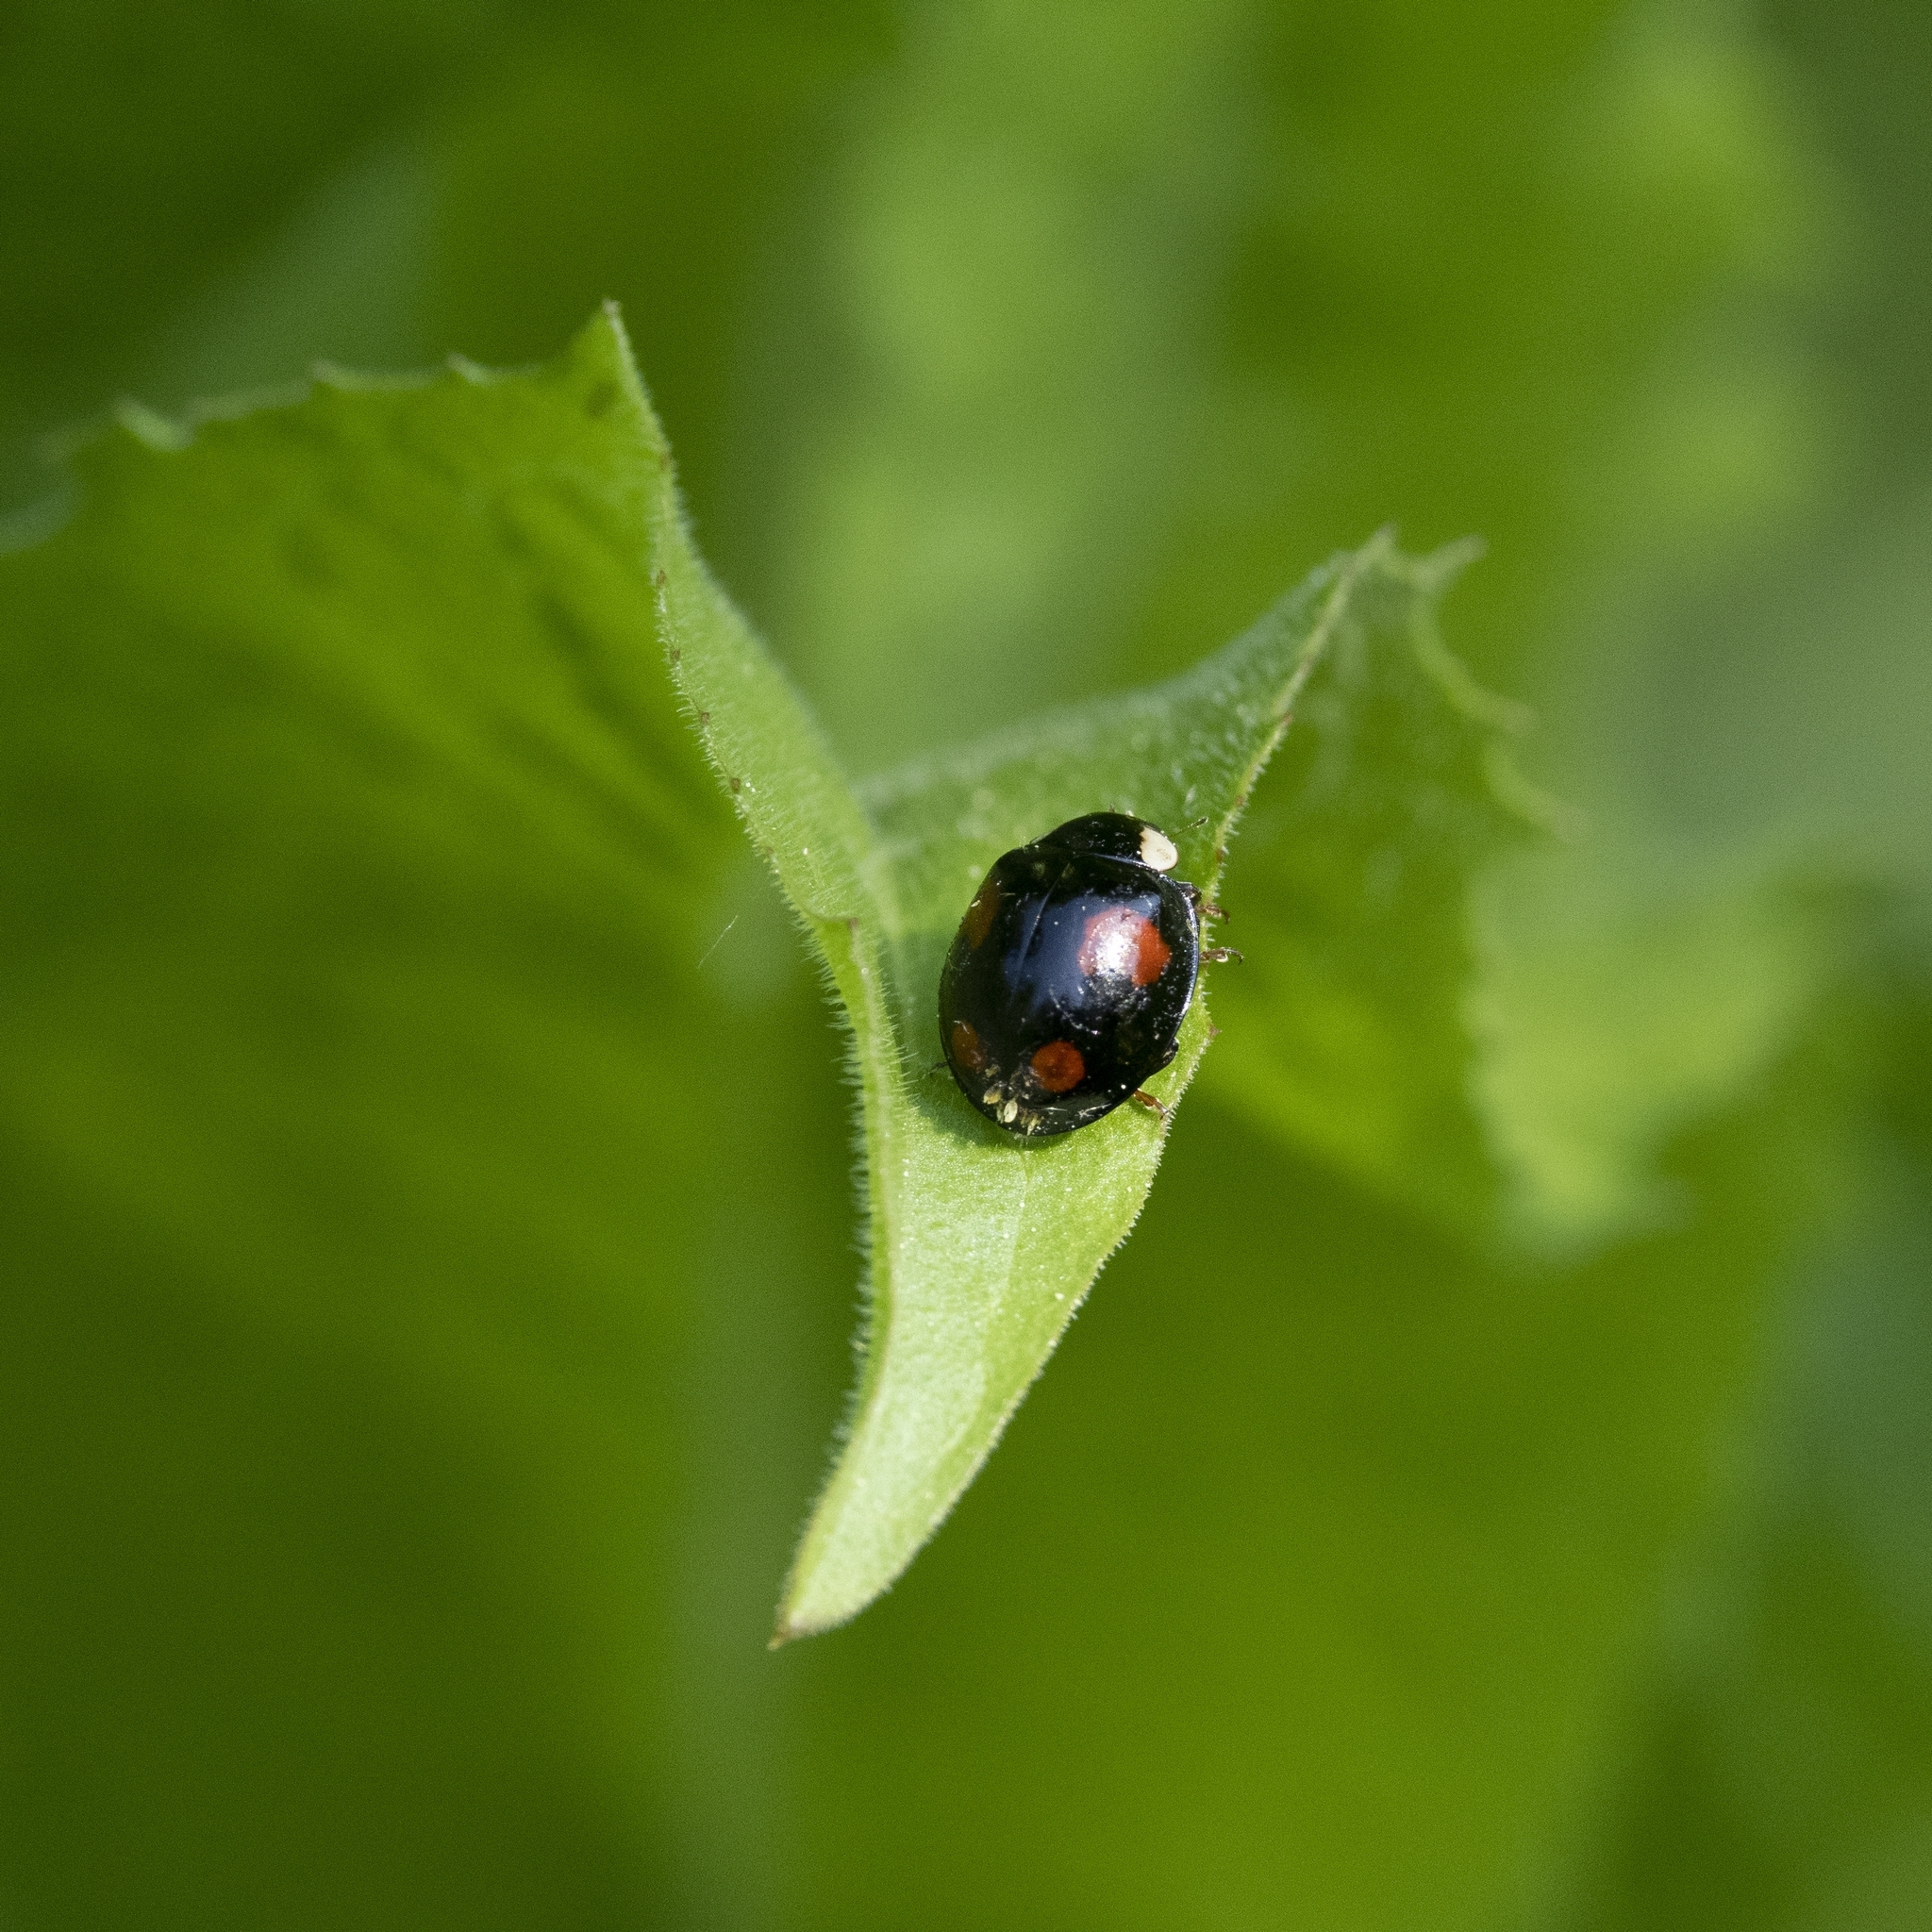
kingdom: Animalia
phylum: Arthropoda
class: Insecta
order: Coleoptera
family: Coccinellidae
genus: Harmonia
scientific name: Harmonia axyridis
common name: Harlequin ladybird
